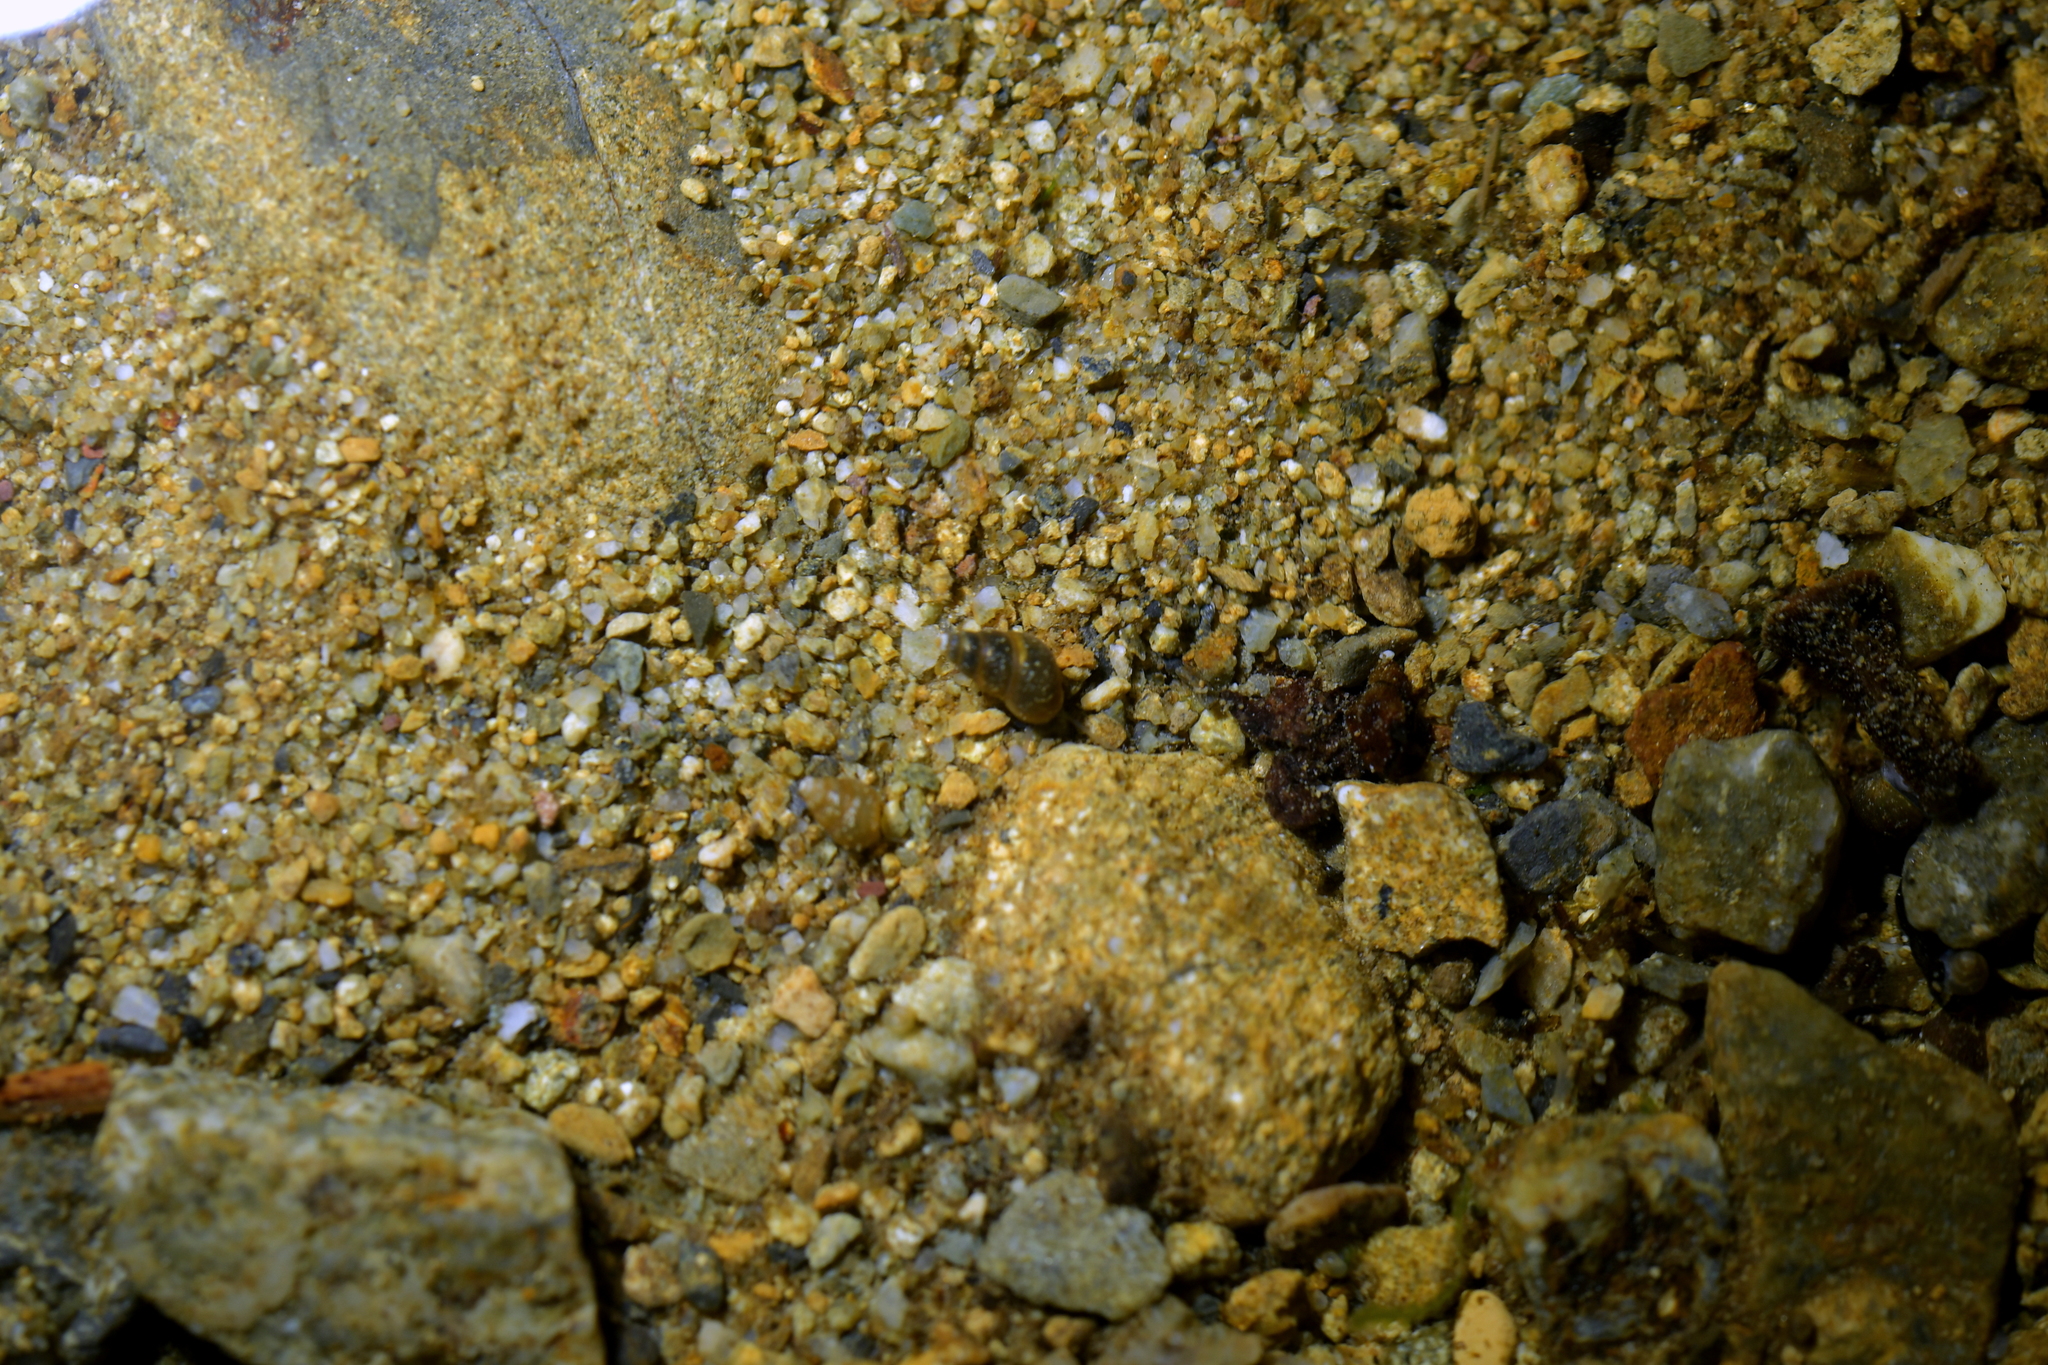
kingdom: Animalia
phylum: Mollusca
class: Gastropoda
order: Littorinimorpha
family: Tateidae
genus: Potamopyrgus
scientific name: Potamopyrgus antipodarum
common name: Jenkins' spire snail
